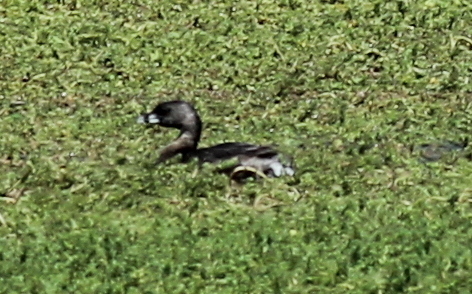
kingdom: Animalia
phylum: Chordata
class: Aves
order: Podicipediformes
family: Podicipedidae
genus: Podilymbus
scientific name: Podilymbus podiceps
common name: Pied-billed grebe
